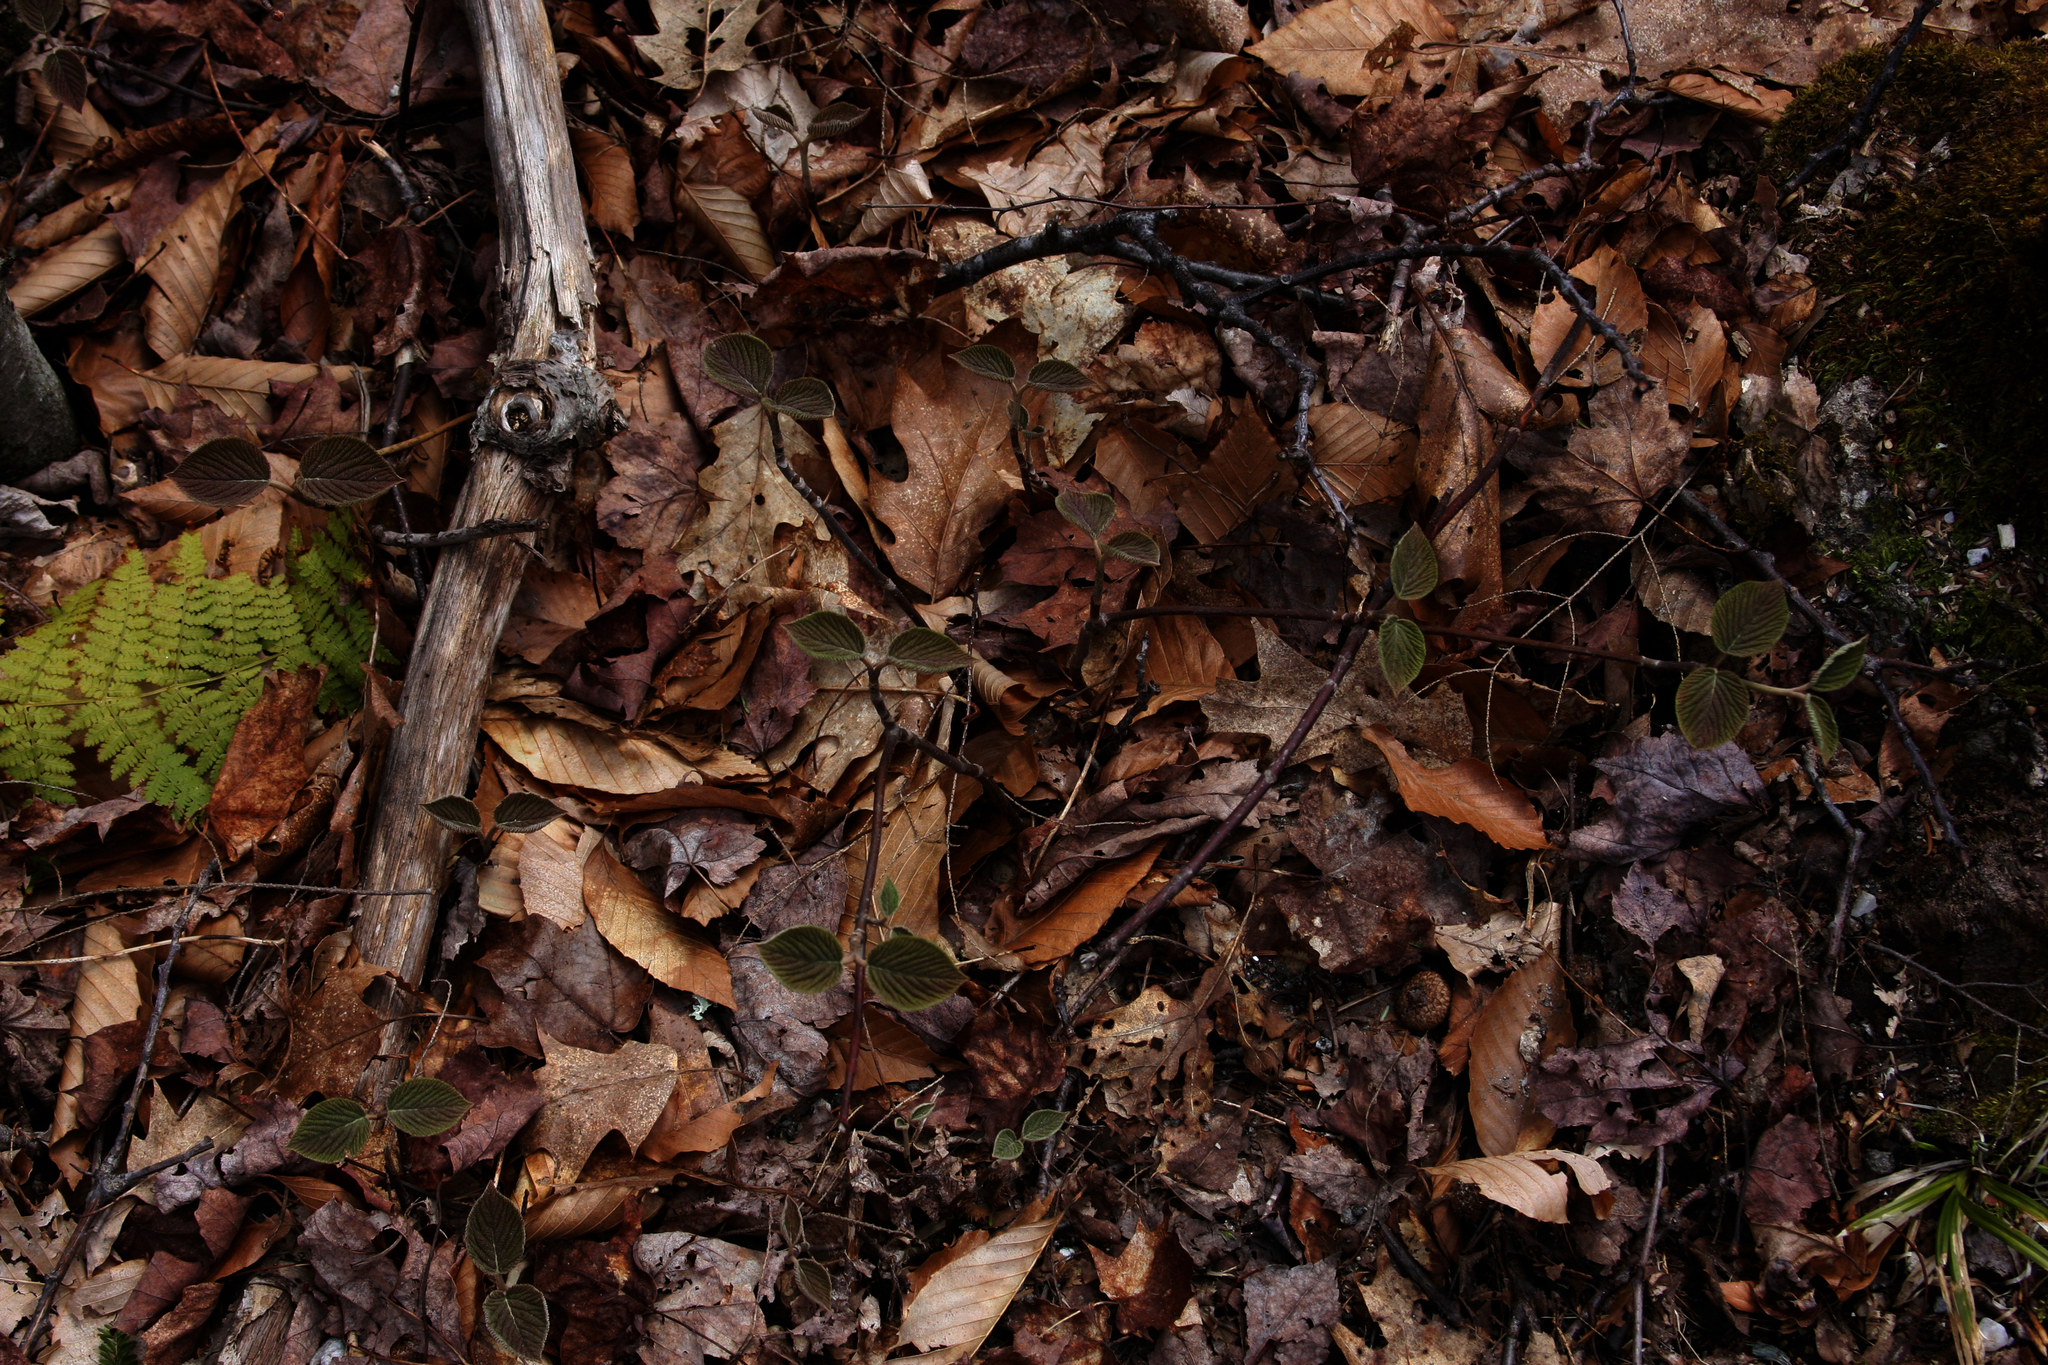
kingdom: Plantae
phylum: Tracheophyta
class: Magnoliopsida
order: Dipsacales
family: Viburnaceae
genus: Viburnum
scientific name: Viburnum lantanoides
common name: Hobblebush
